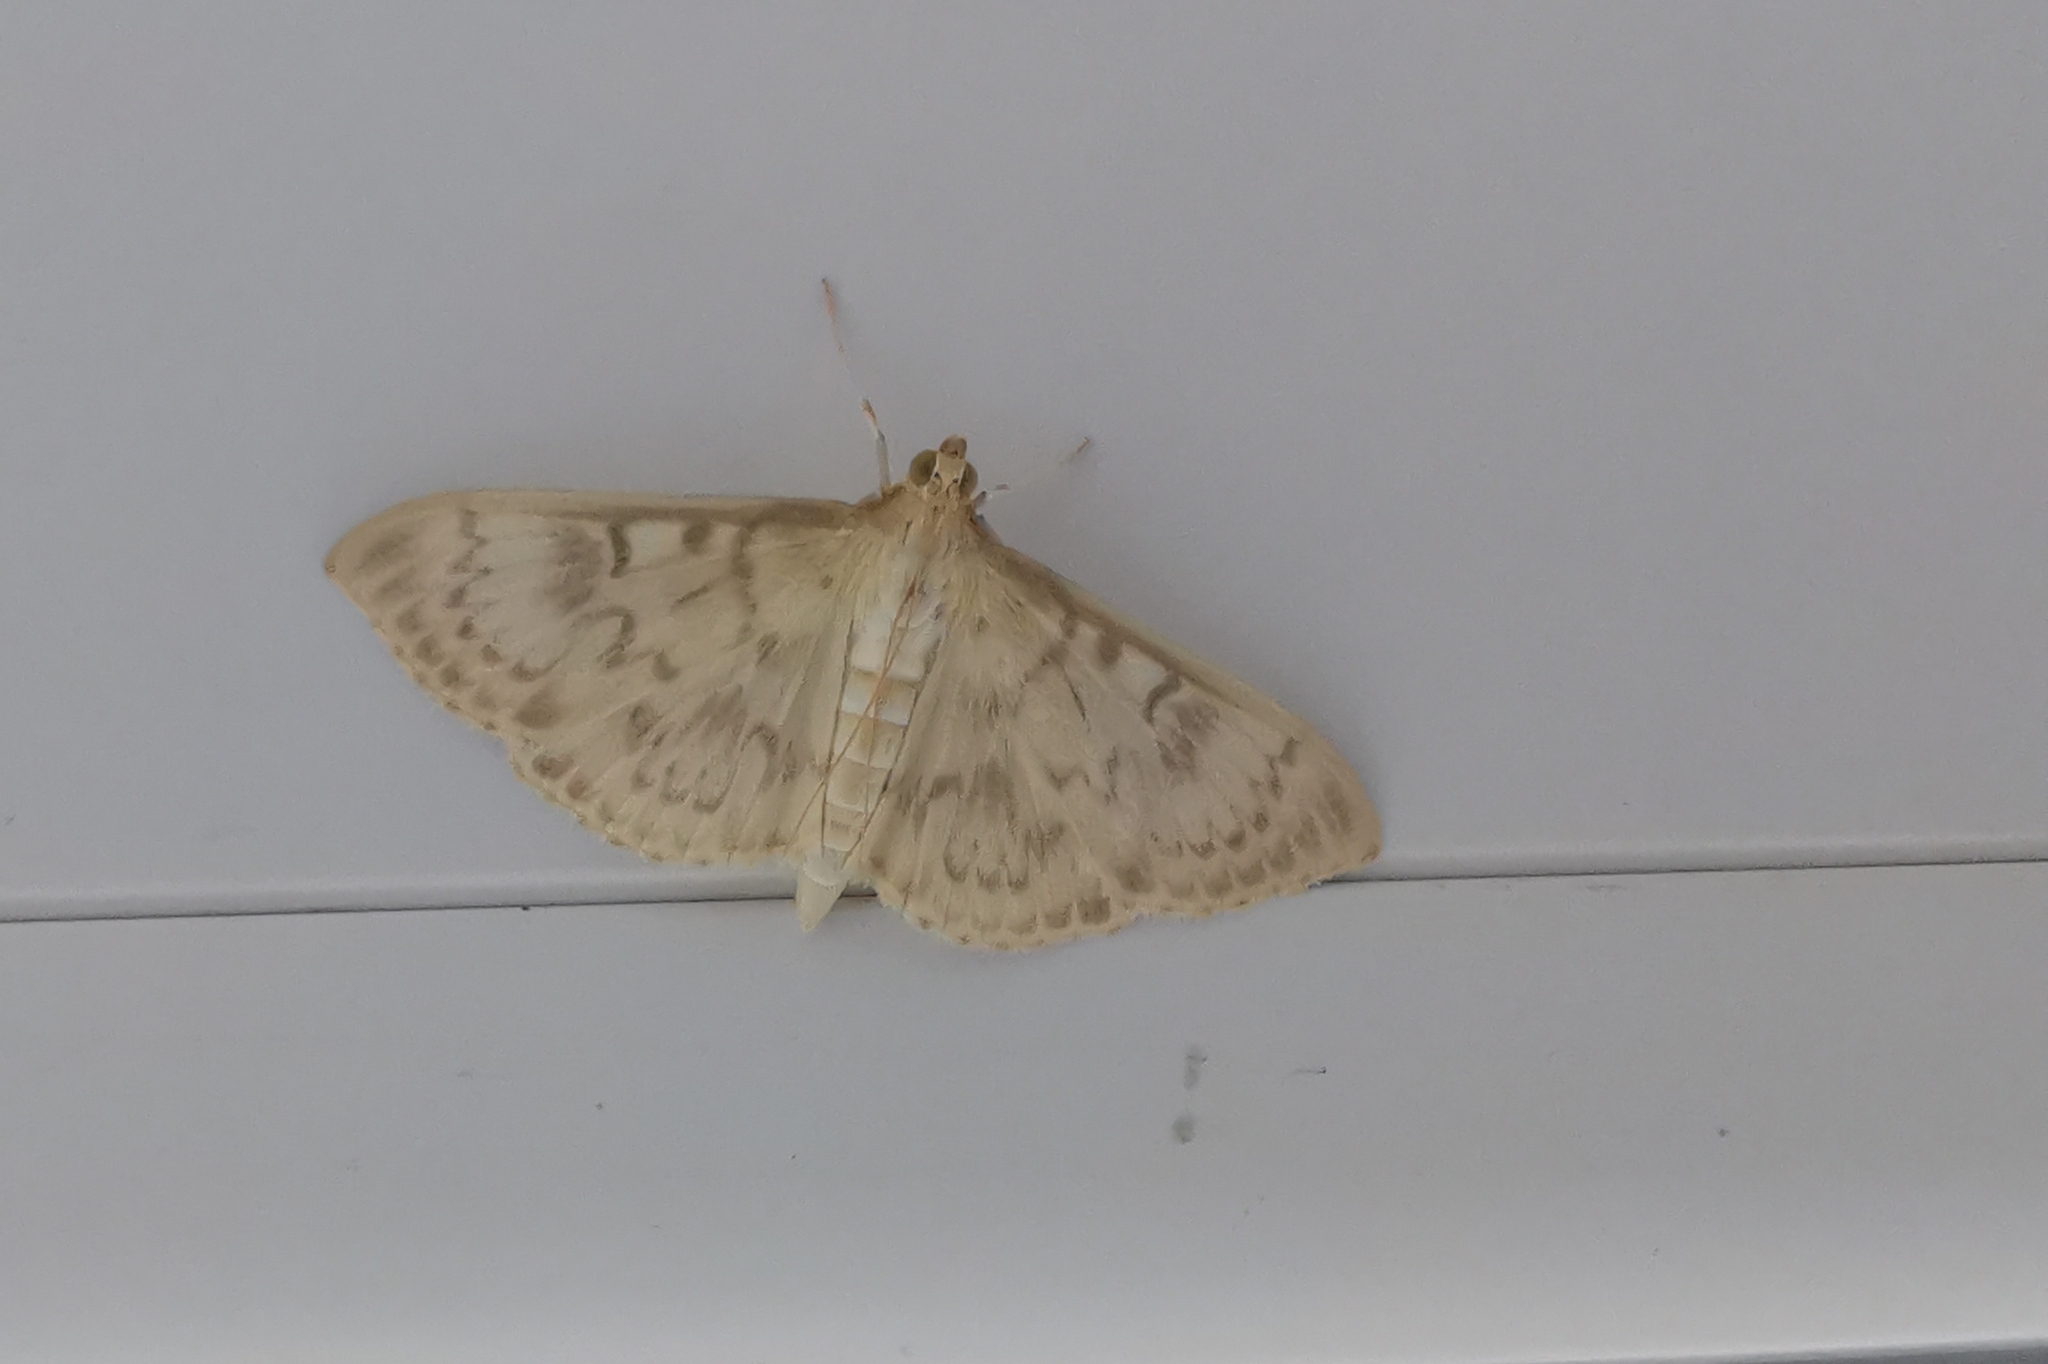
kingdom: Animalia
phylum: Arthropoda
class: Insecta
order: Lepidoptera
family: Crambidae
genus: Patania
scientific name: Patania ruralis
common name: Mother of pearl
